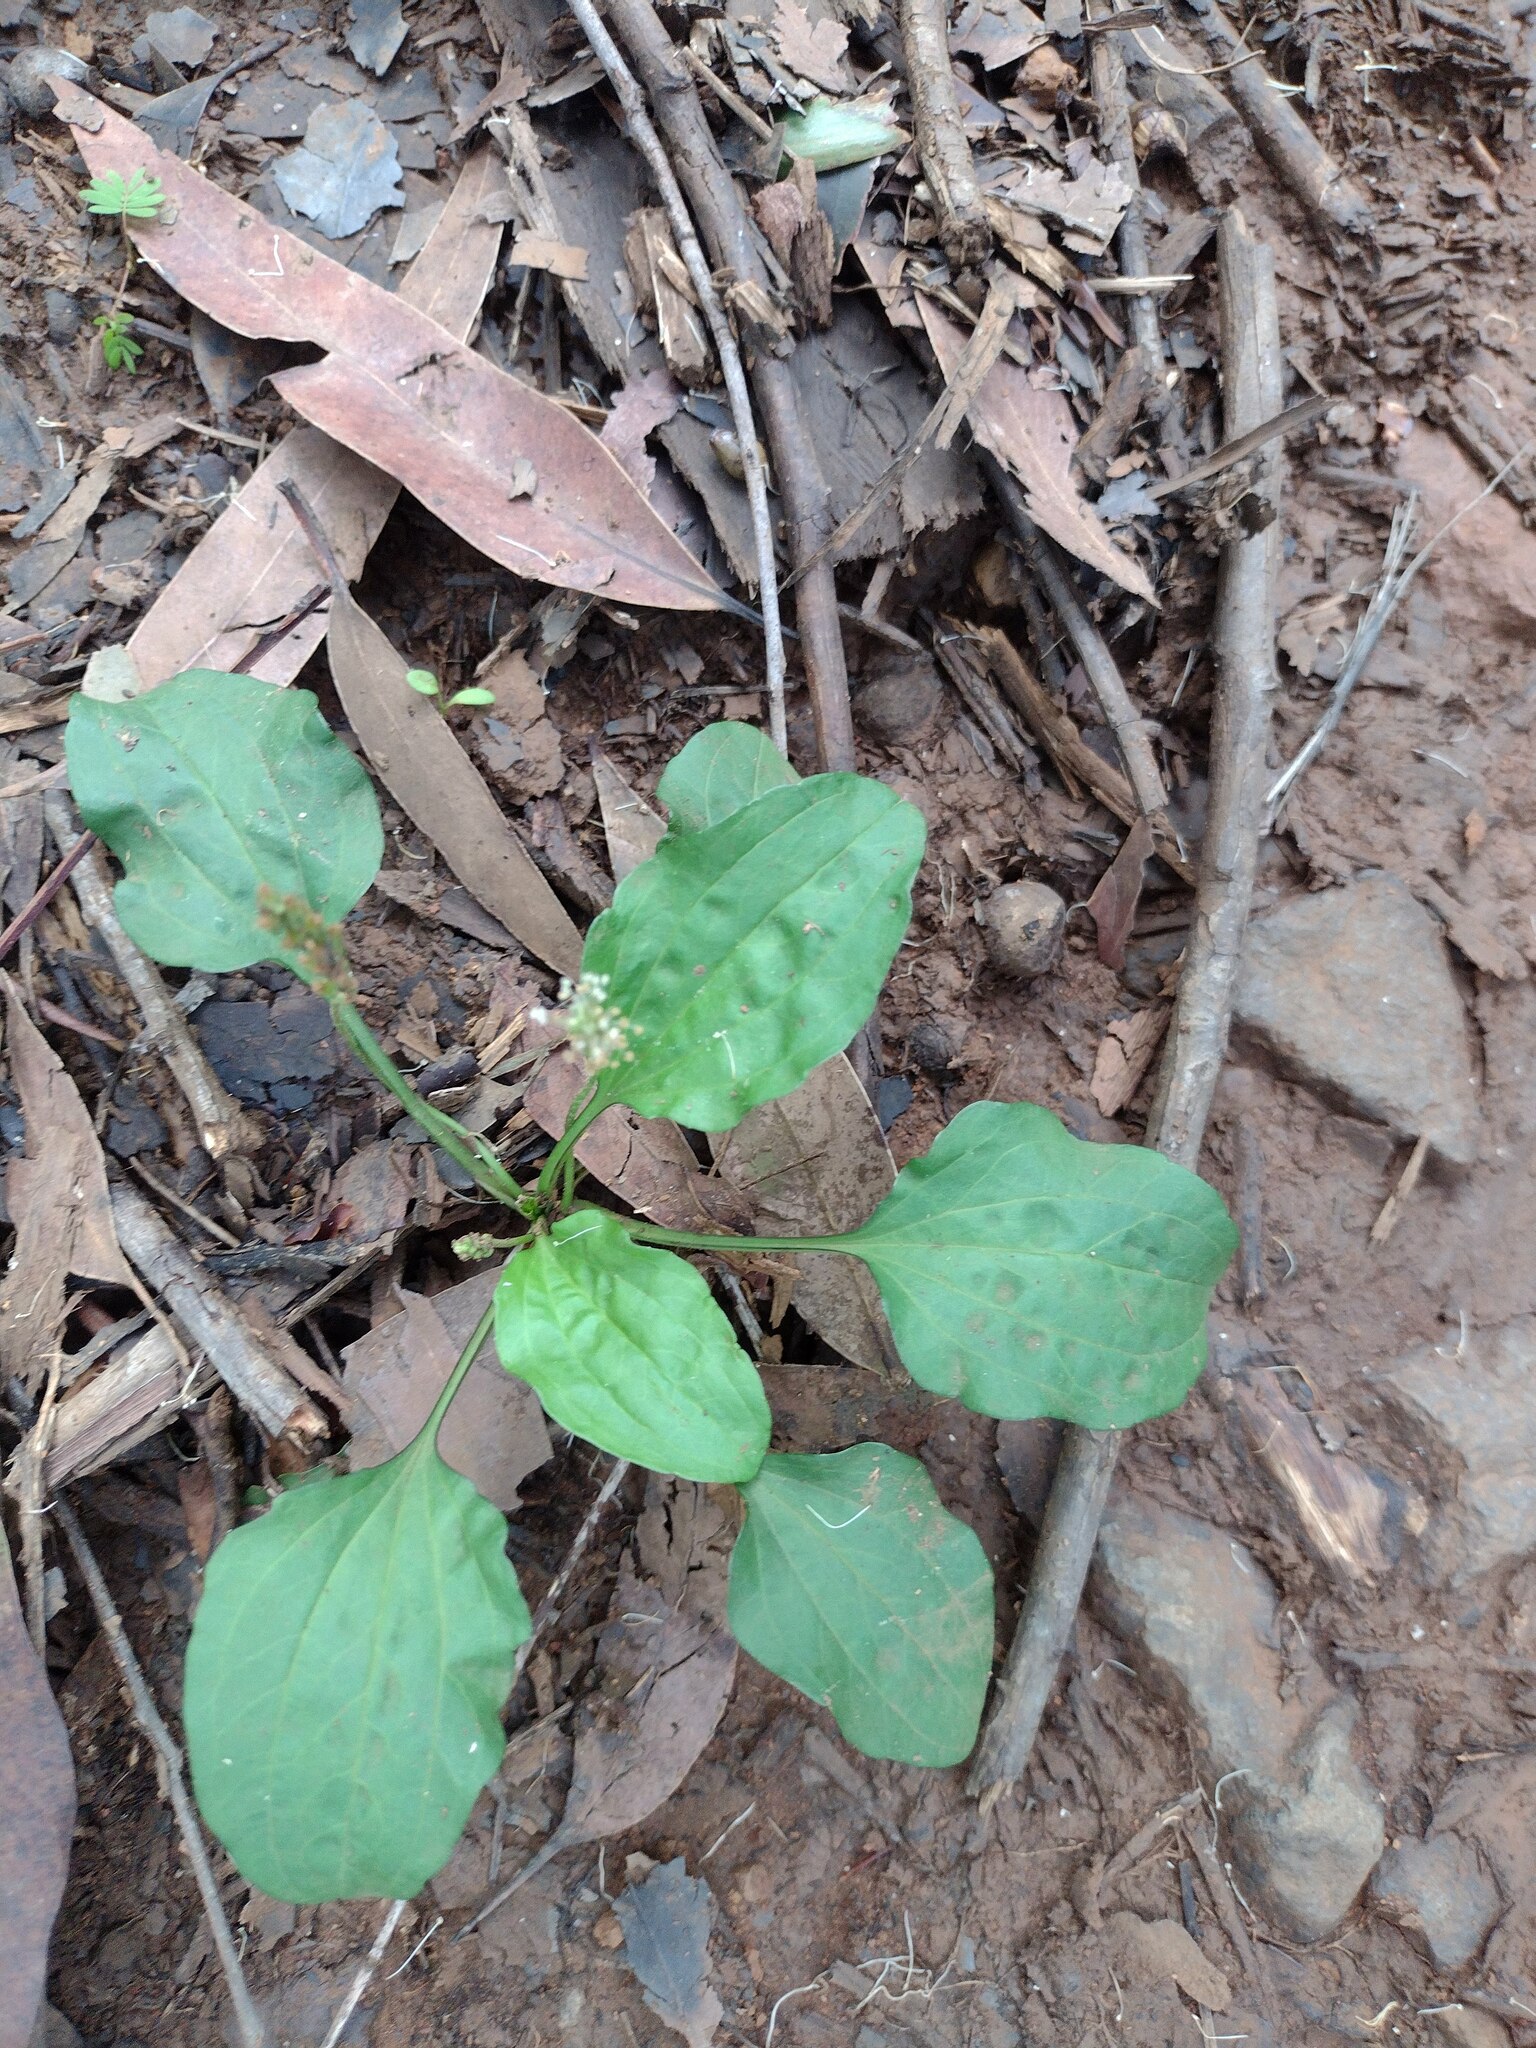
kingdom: Plantae
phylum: Tracheophyta
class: Magnoliopsida
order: Lamiales
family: Plantaginaceae
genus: Plantago
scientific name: Plantago major
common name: Common plantain
